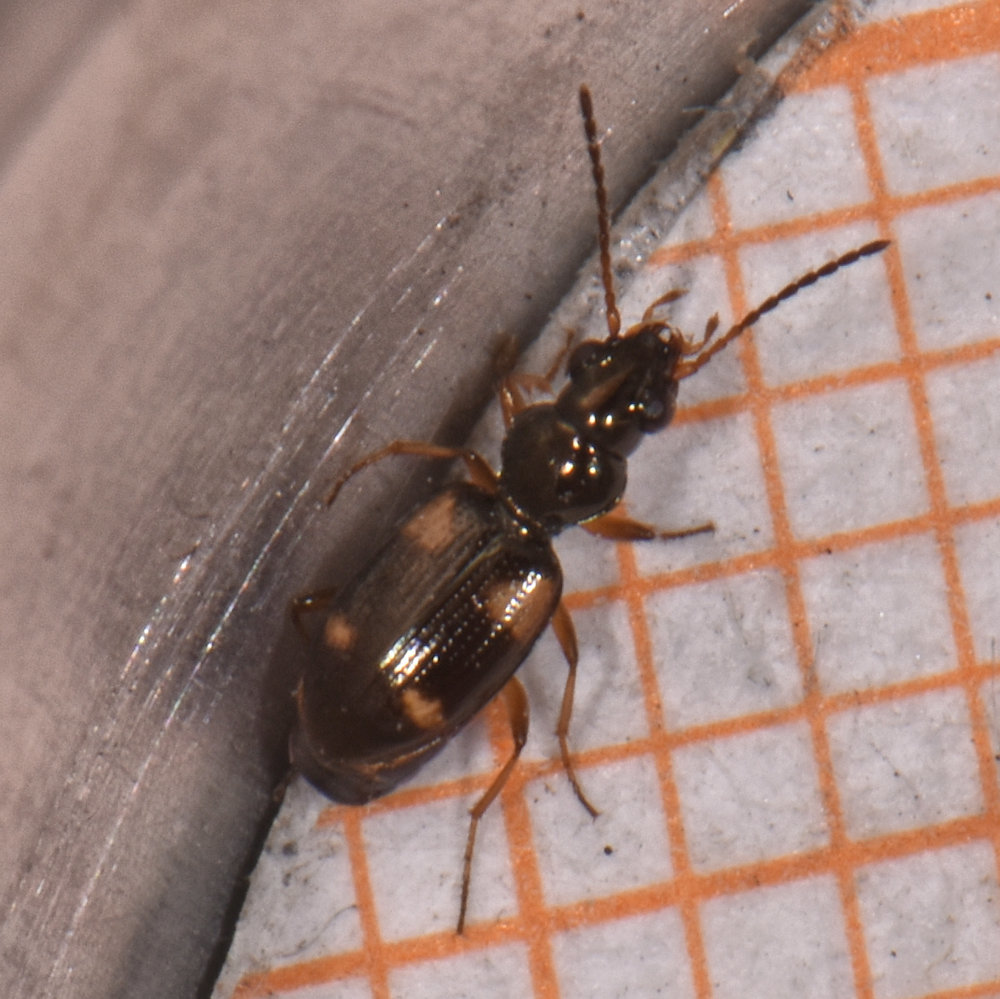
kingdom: Animalia
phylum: Arthropoda
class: Insecta
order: Coleoptera
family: Carabidae
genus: Bembidion
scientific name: Bembidion quadrimaculatum
